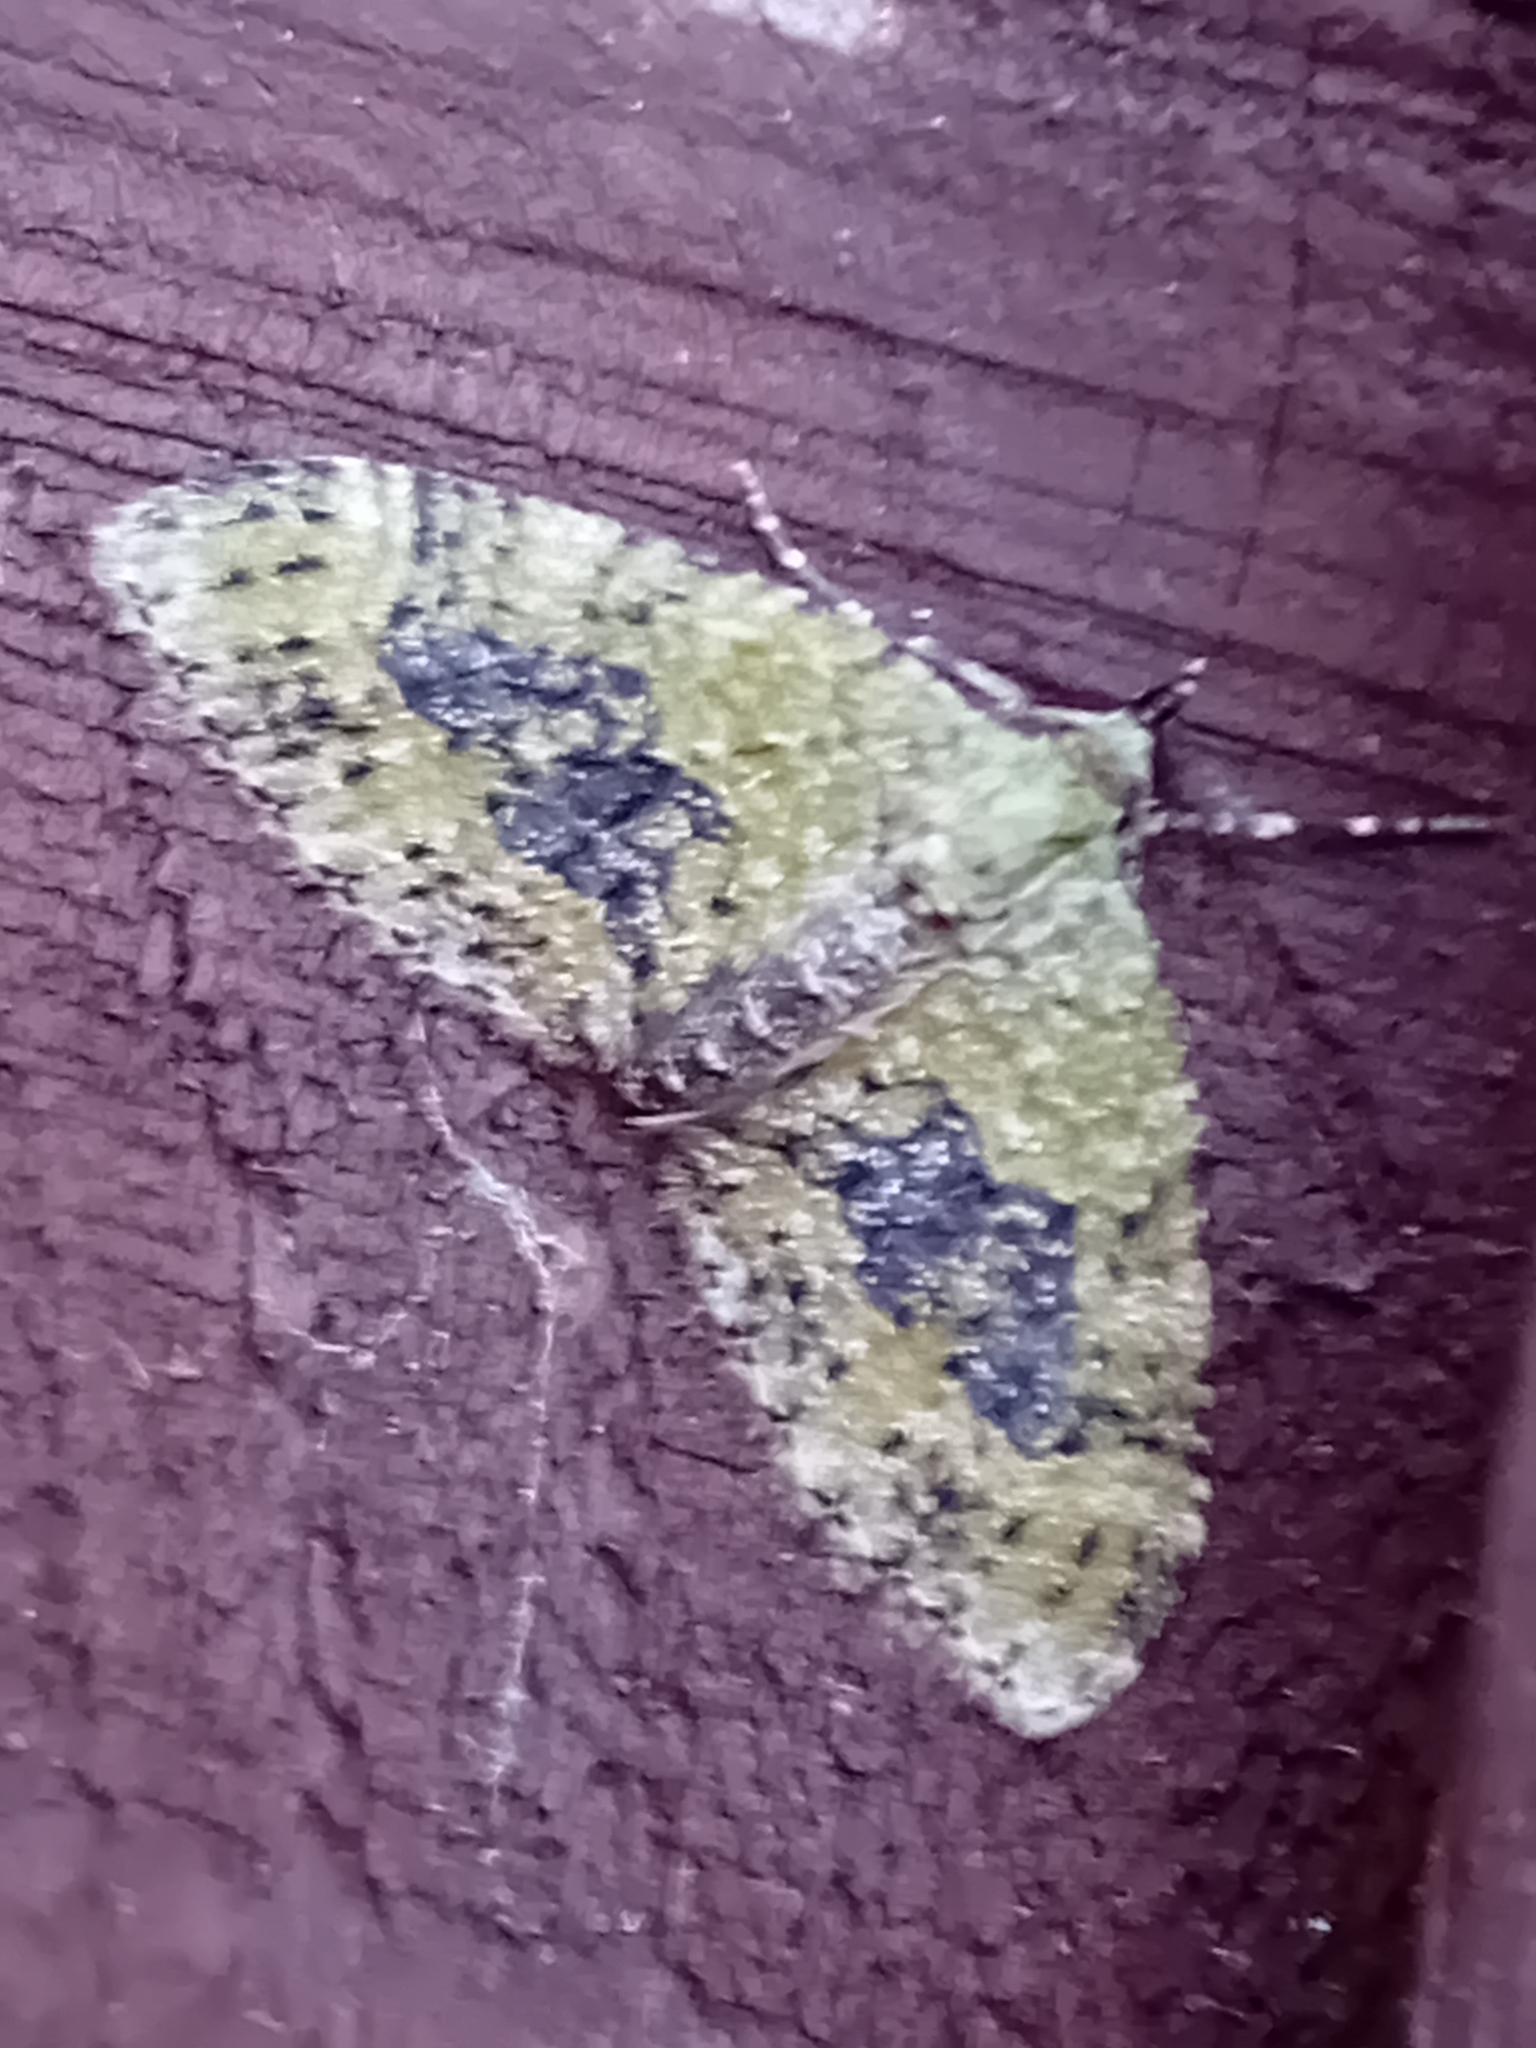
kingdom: Animalia
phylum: Arthropoda
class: Insecta
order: Lepidoptera
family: Geometridae
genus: Acasis
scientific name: Acasis viretata
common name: Yellow-barred brindle
